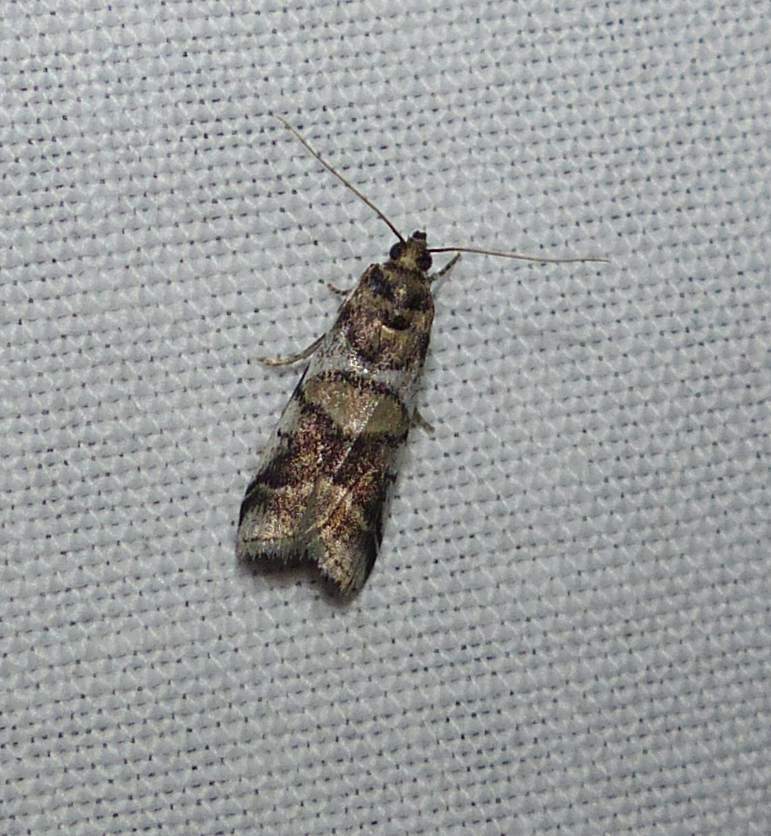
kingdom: Animalia
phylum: Arthropoda
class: Insecta
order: Lepidoptera
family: Pyralidae
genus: Acrobasis
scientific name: Acrobasis indigenella
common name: Leaf crumpler moth
